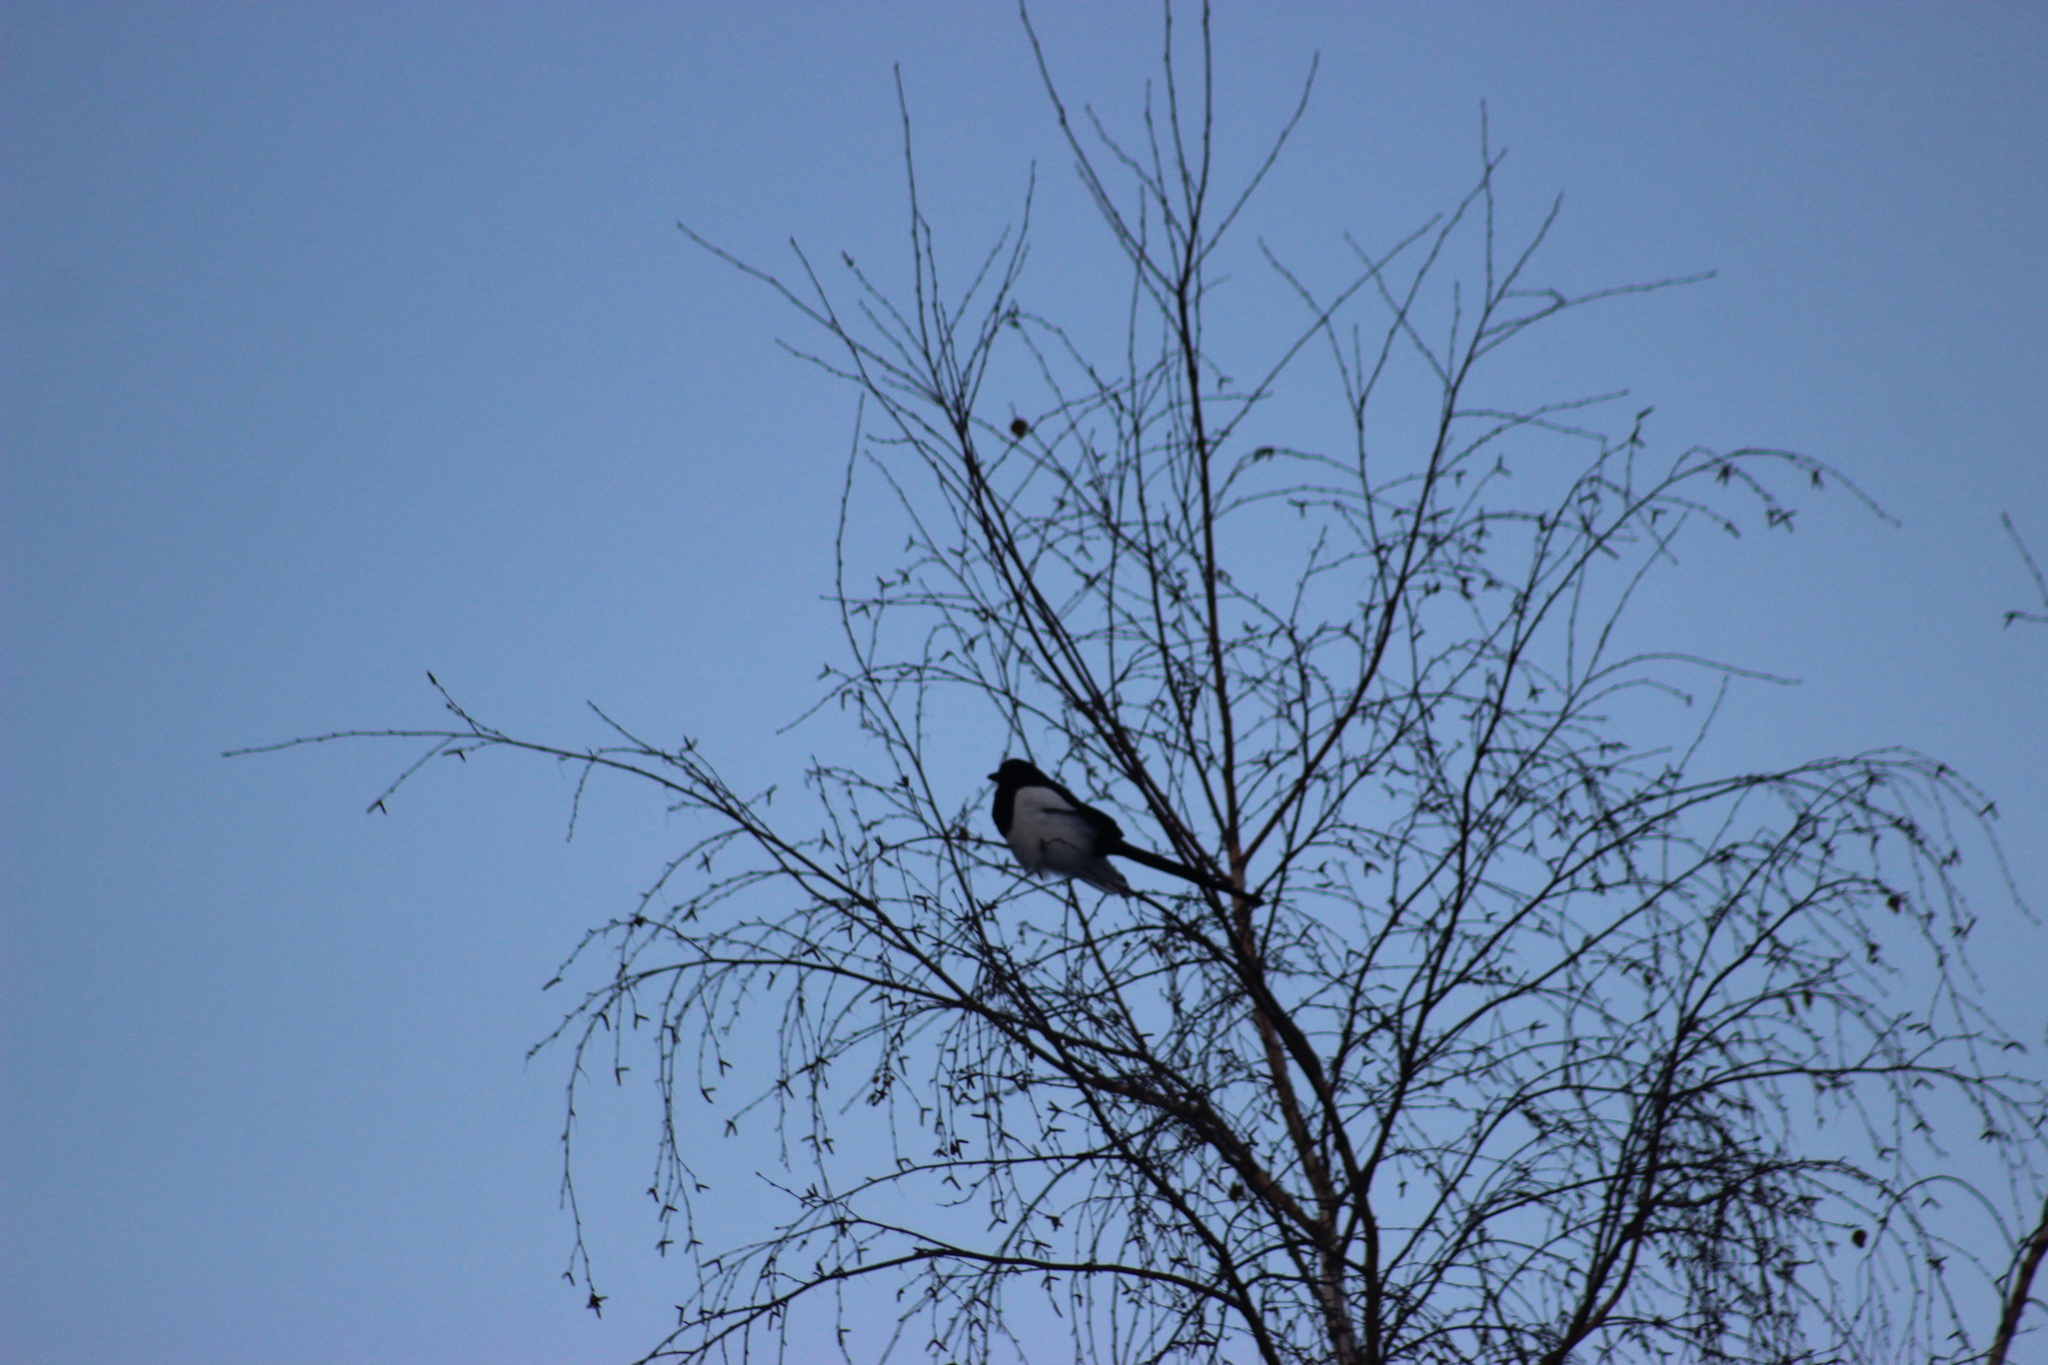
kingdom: Animalia
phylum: Chordata
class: Aves
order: Passeriformes
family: Corvidae
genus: Pica
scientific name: Pica pica
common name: Eurasian magpie
